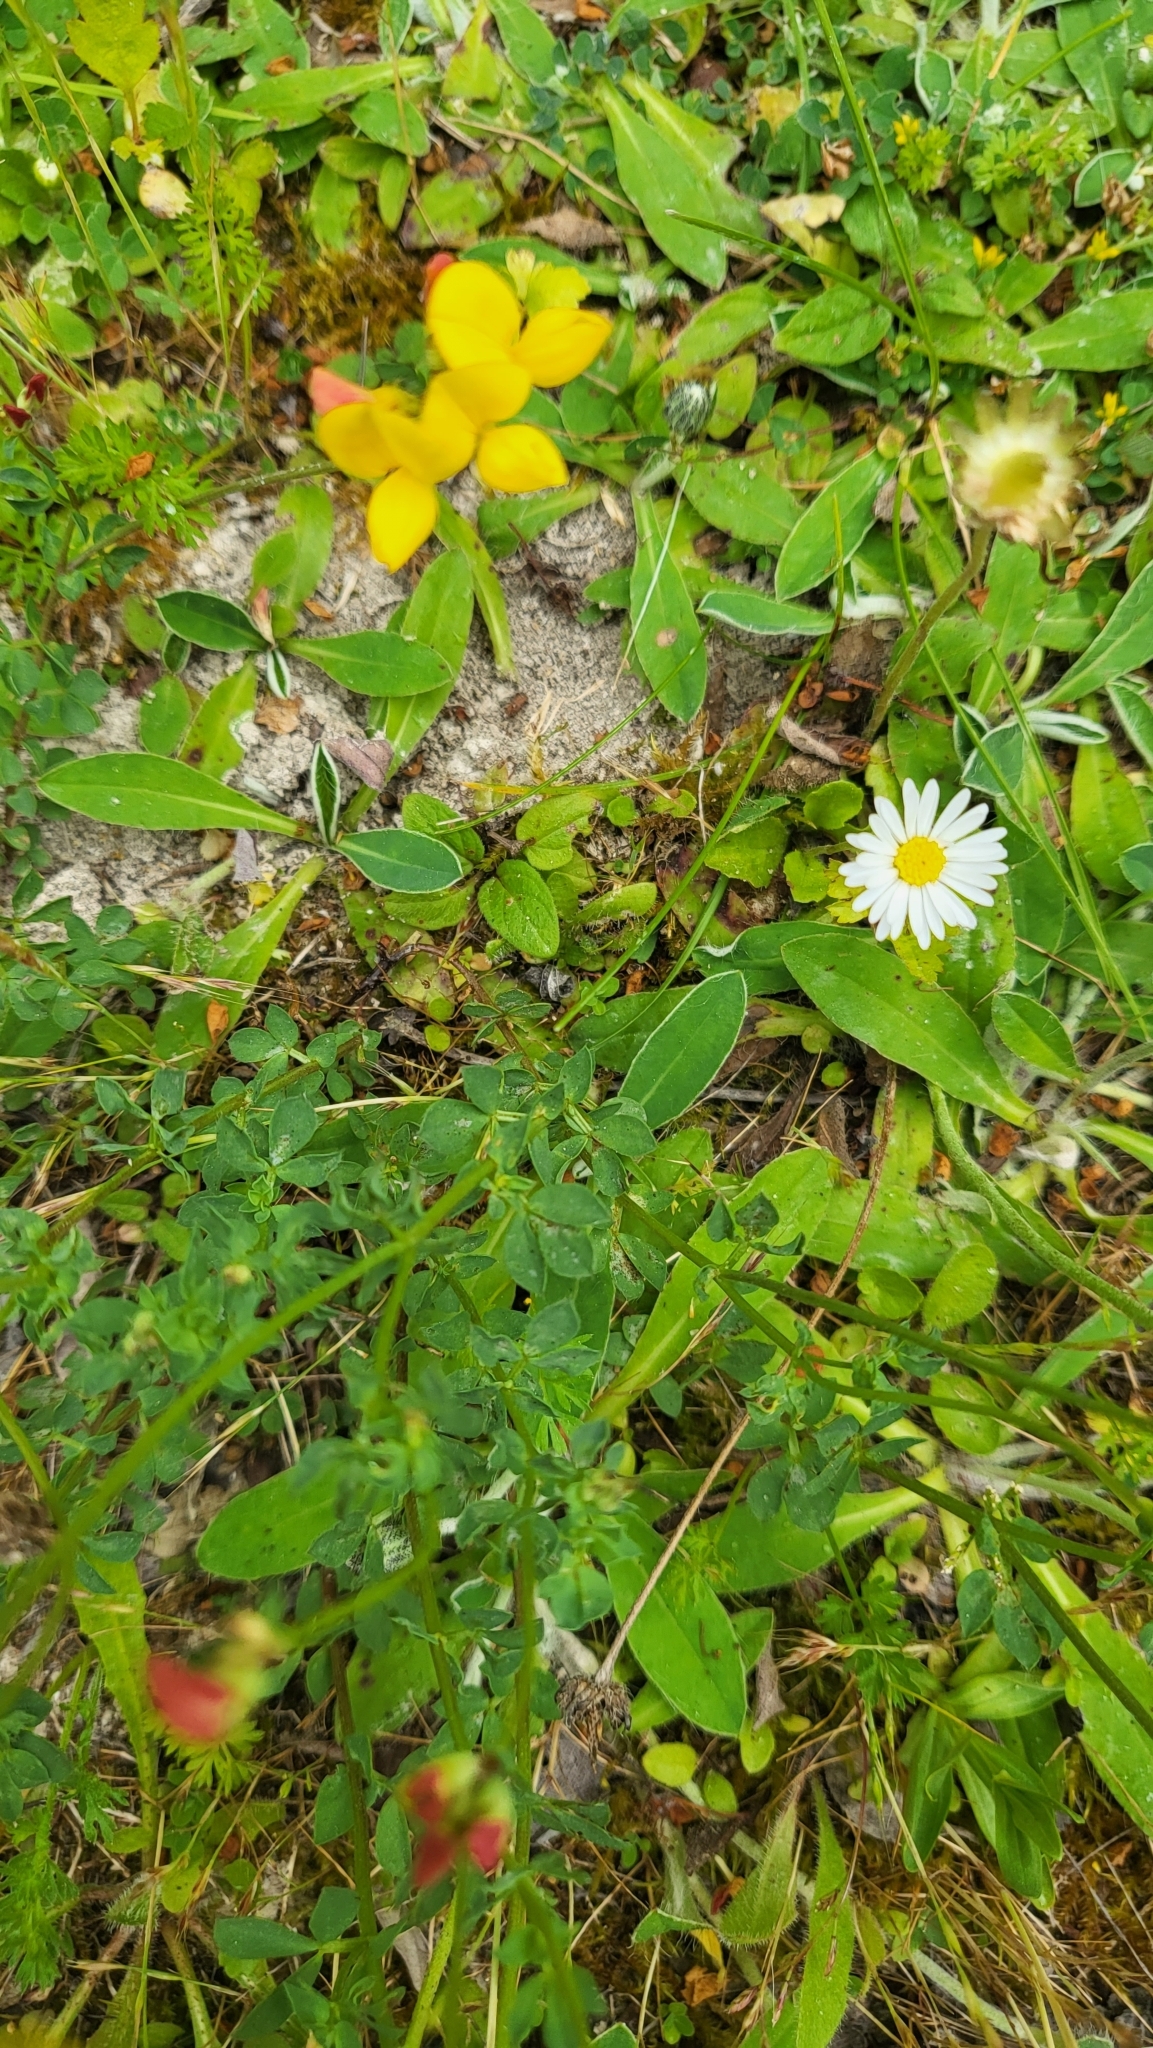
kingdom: Plantae
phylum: Tracheophyta
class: Magnoliopsida
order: Fabales
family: Fabaceae
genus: Lotus
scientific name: Lotus corniculatus
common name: Common bird's-foot-trefoil
